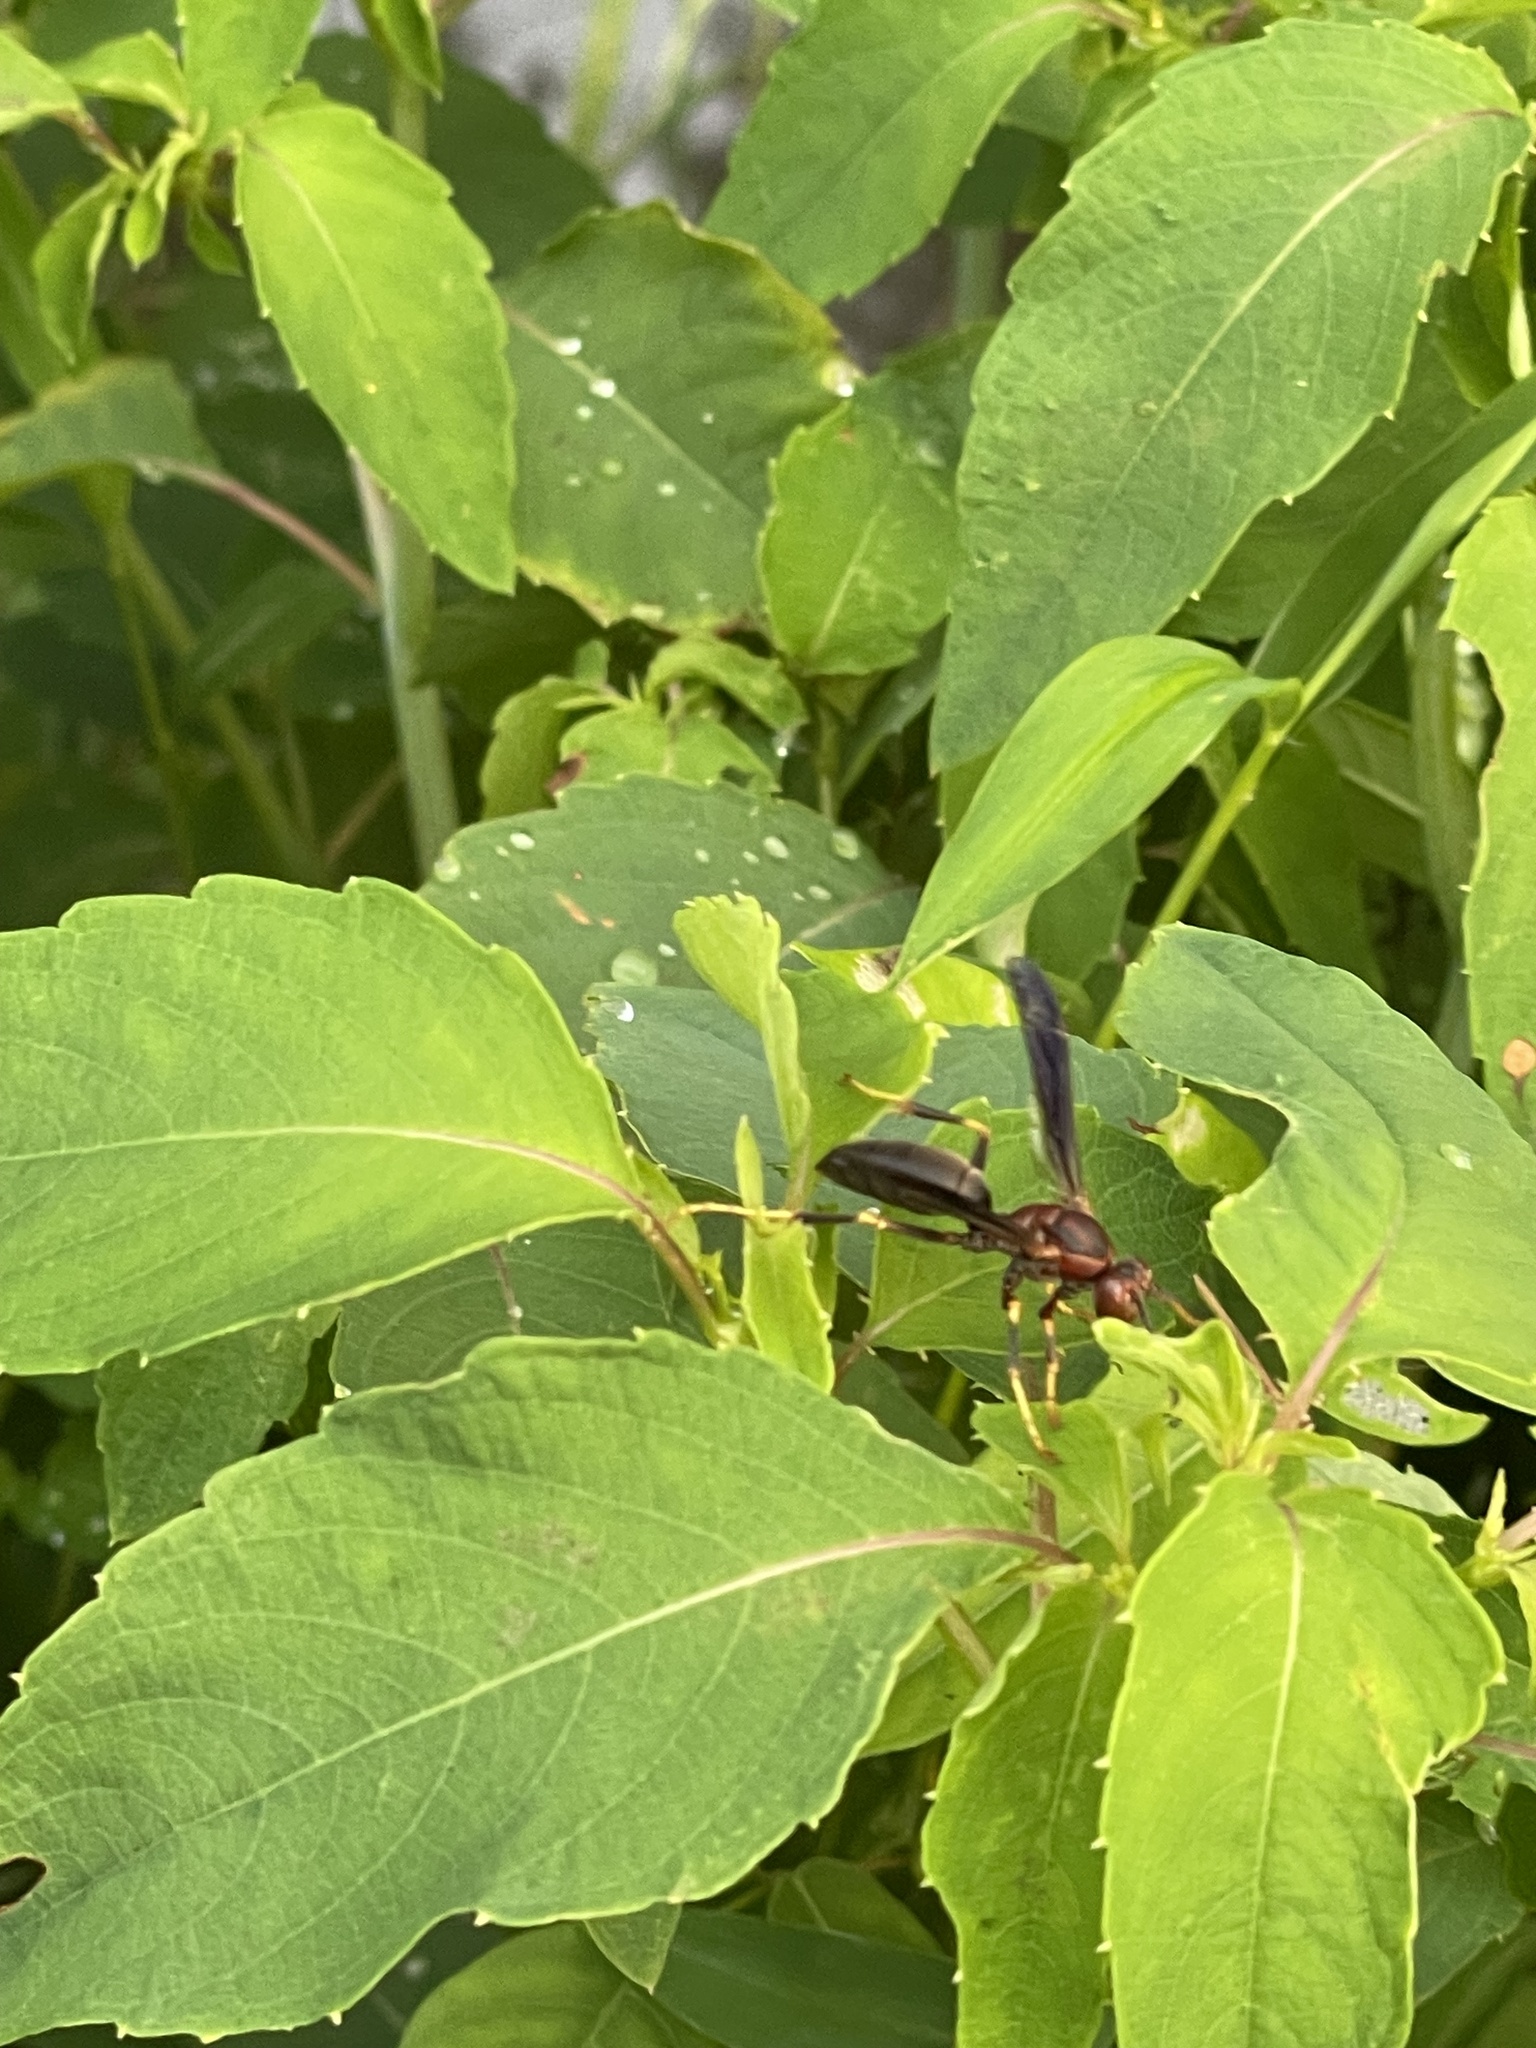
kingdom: Animalia
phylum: Arthropoda
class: Insecta
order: Hymenoptera
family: Eumenidae
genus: Polistes
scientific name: Polistes metricus
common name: Metric paper wasp
